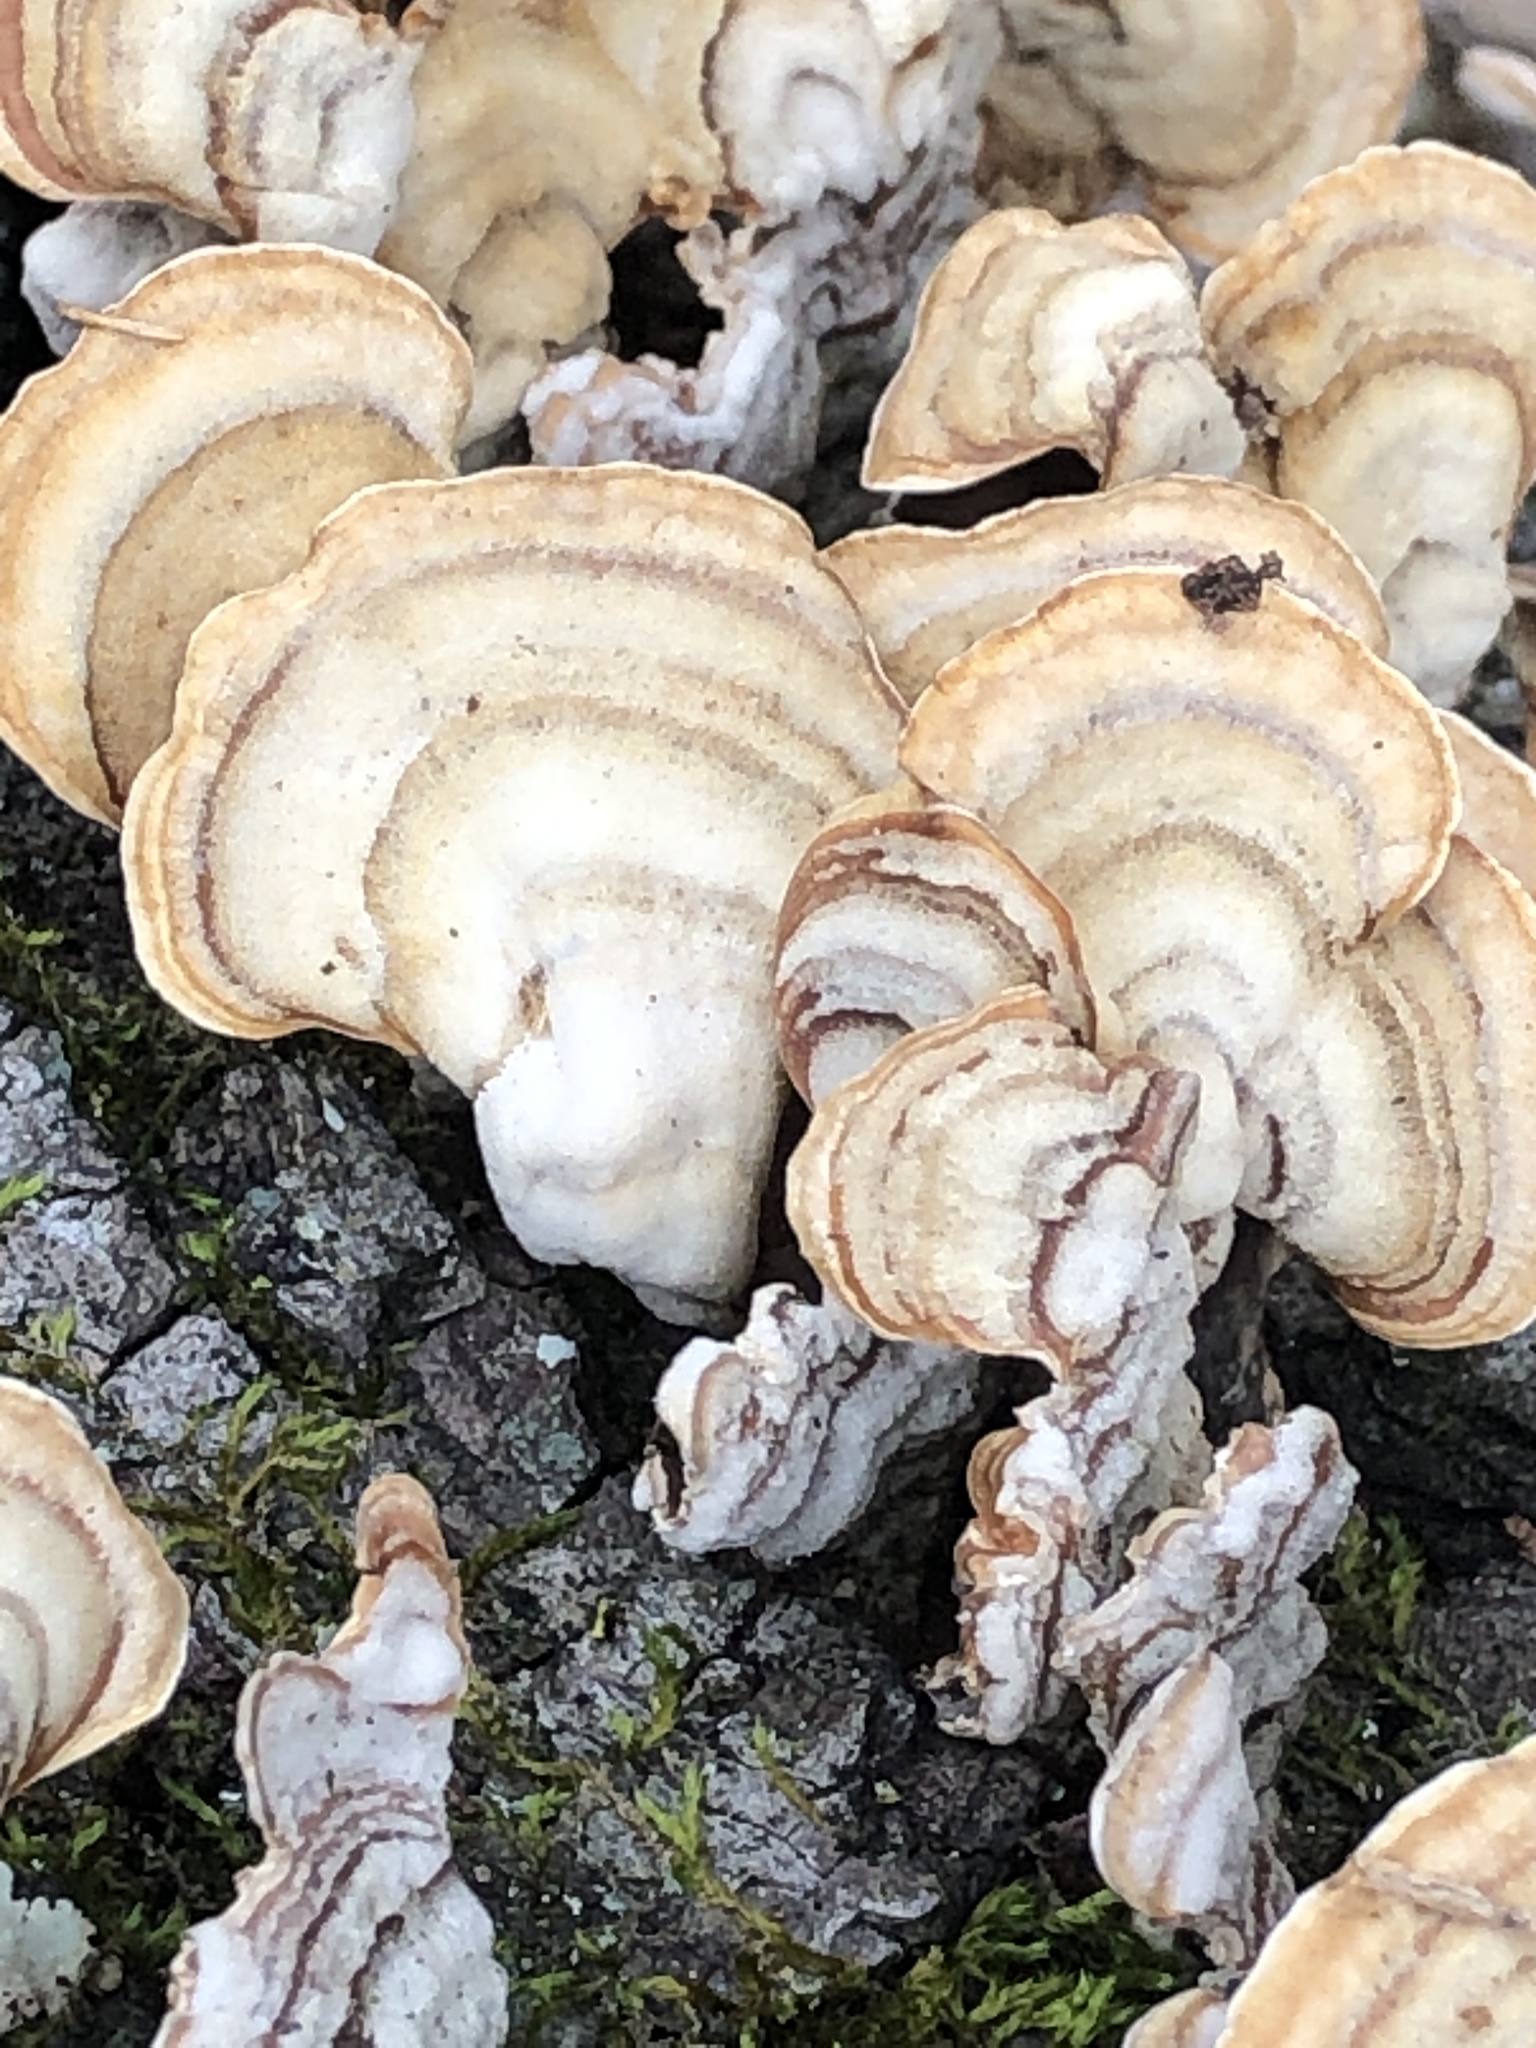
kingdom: Fungi
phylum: Basidiomycota
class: Agaricomycetes
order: Russulales
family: Stereaceae
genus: Stereum
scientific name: Stereum ostrea
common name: False turkeytail
